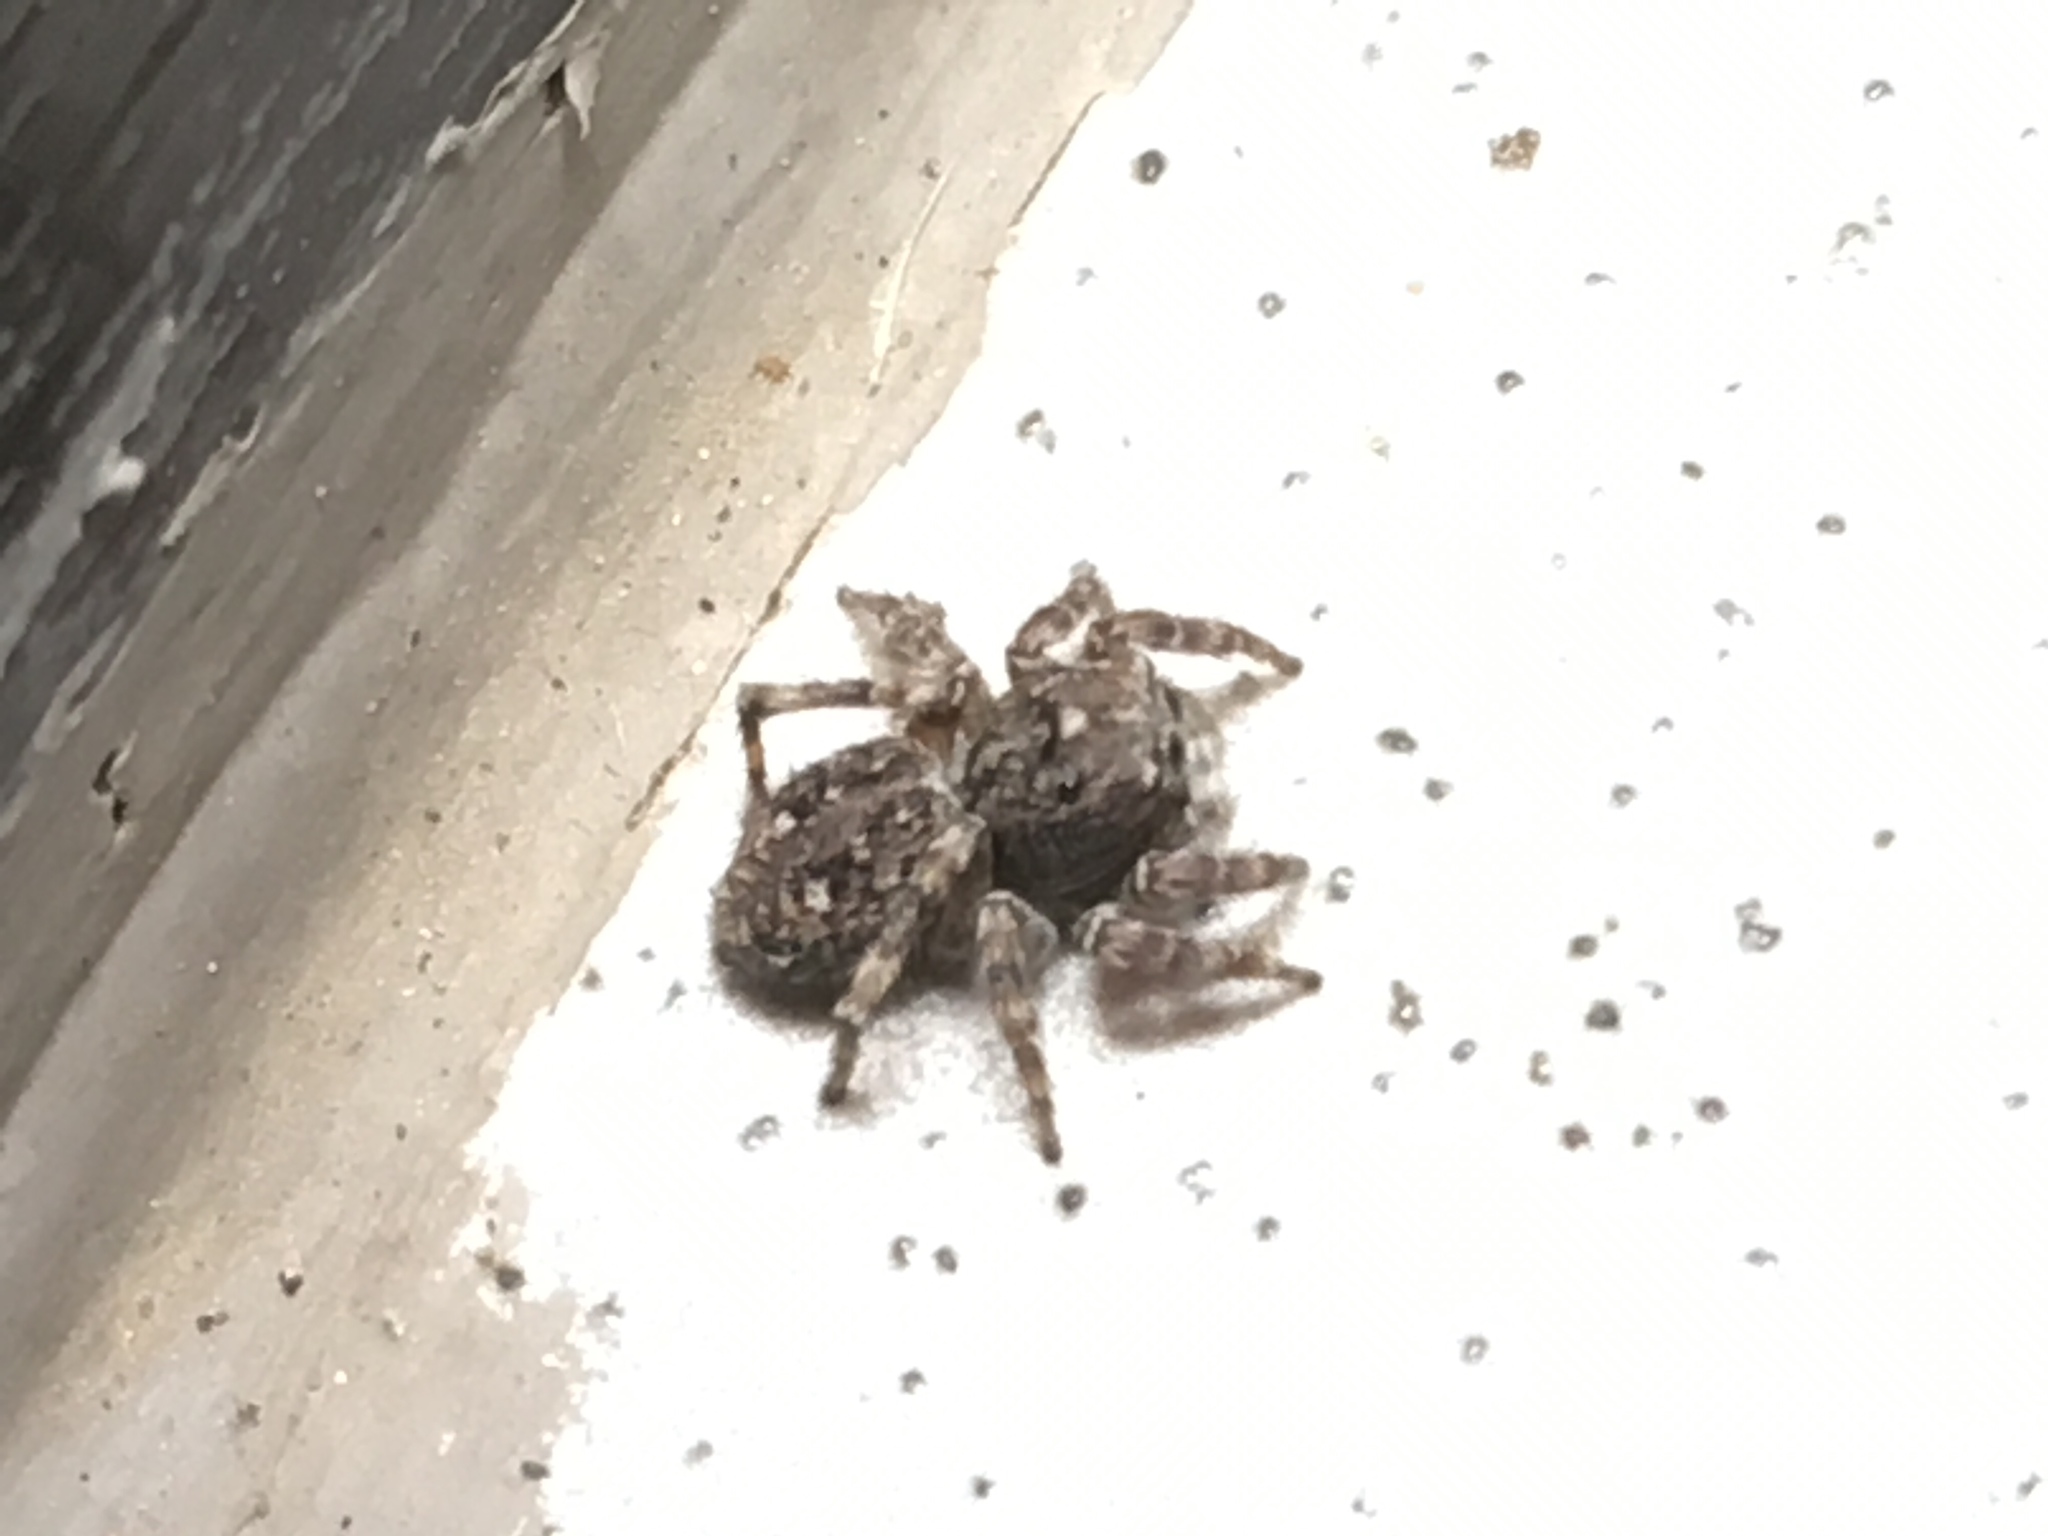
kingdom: Animalia
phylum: Arthropoda
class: Arachnida
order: Araneae
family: Salticidae
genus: Attulus
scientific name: Attulus pubescens
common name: Jumping spider
